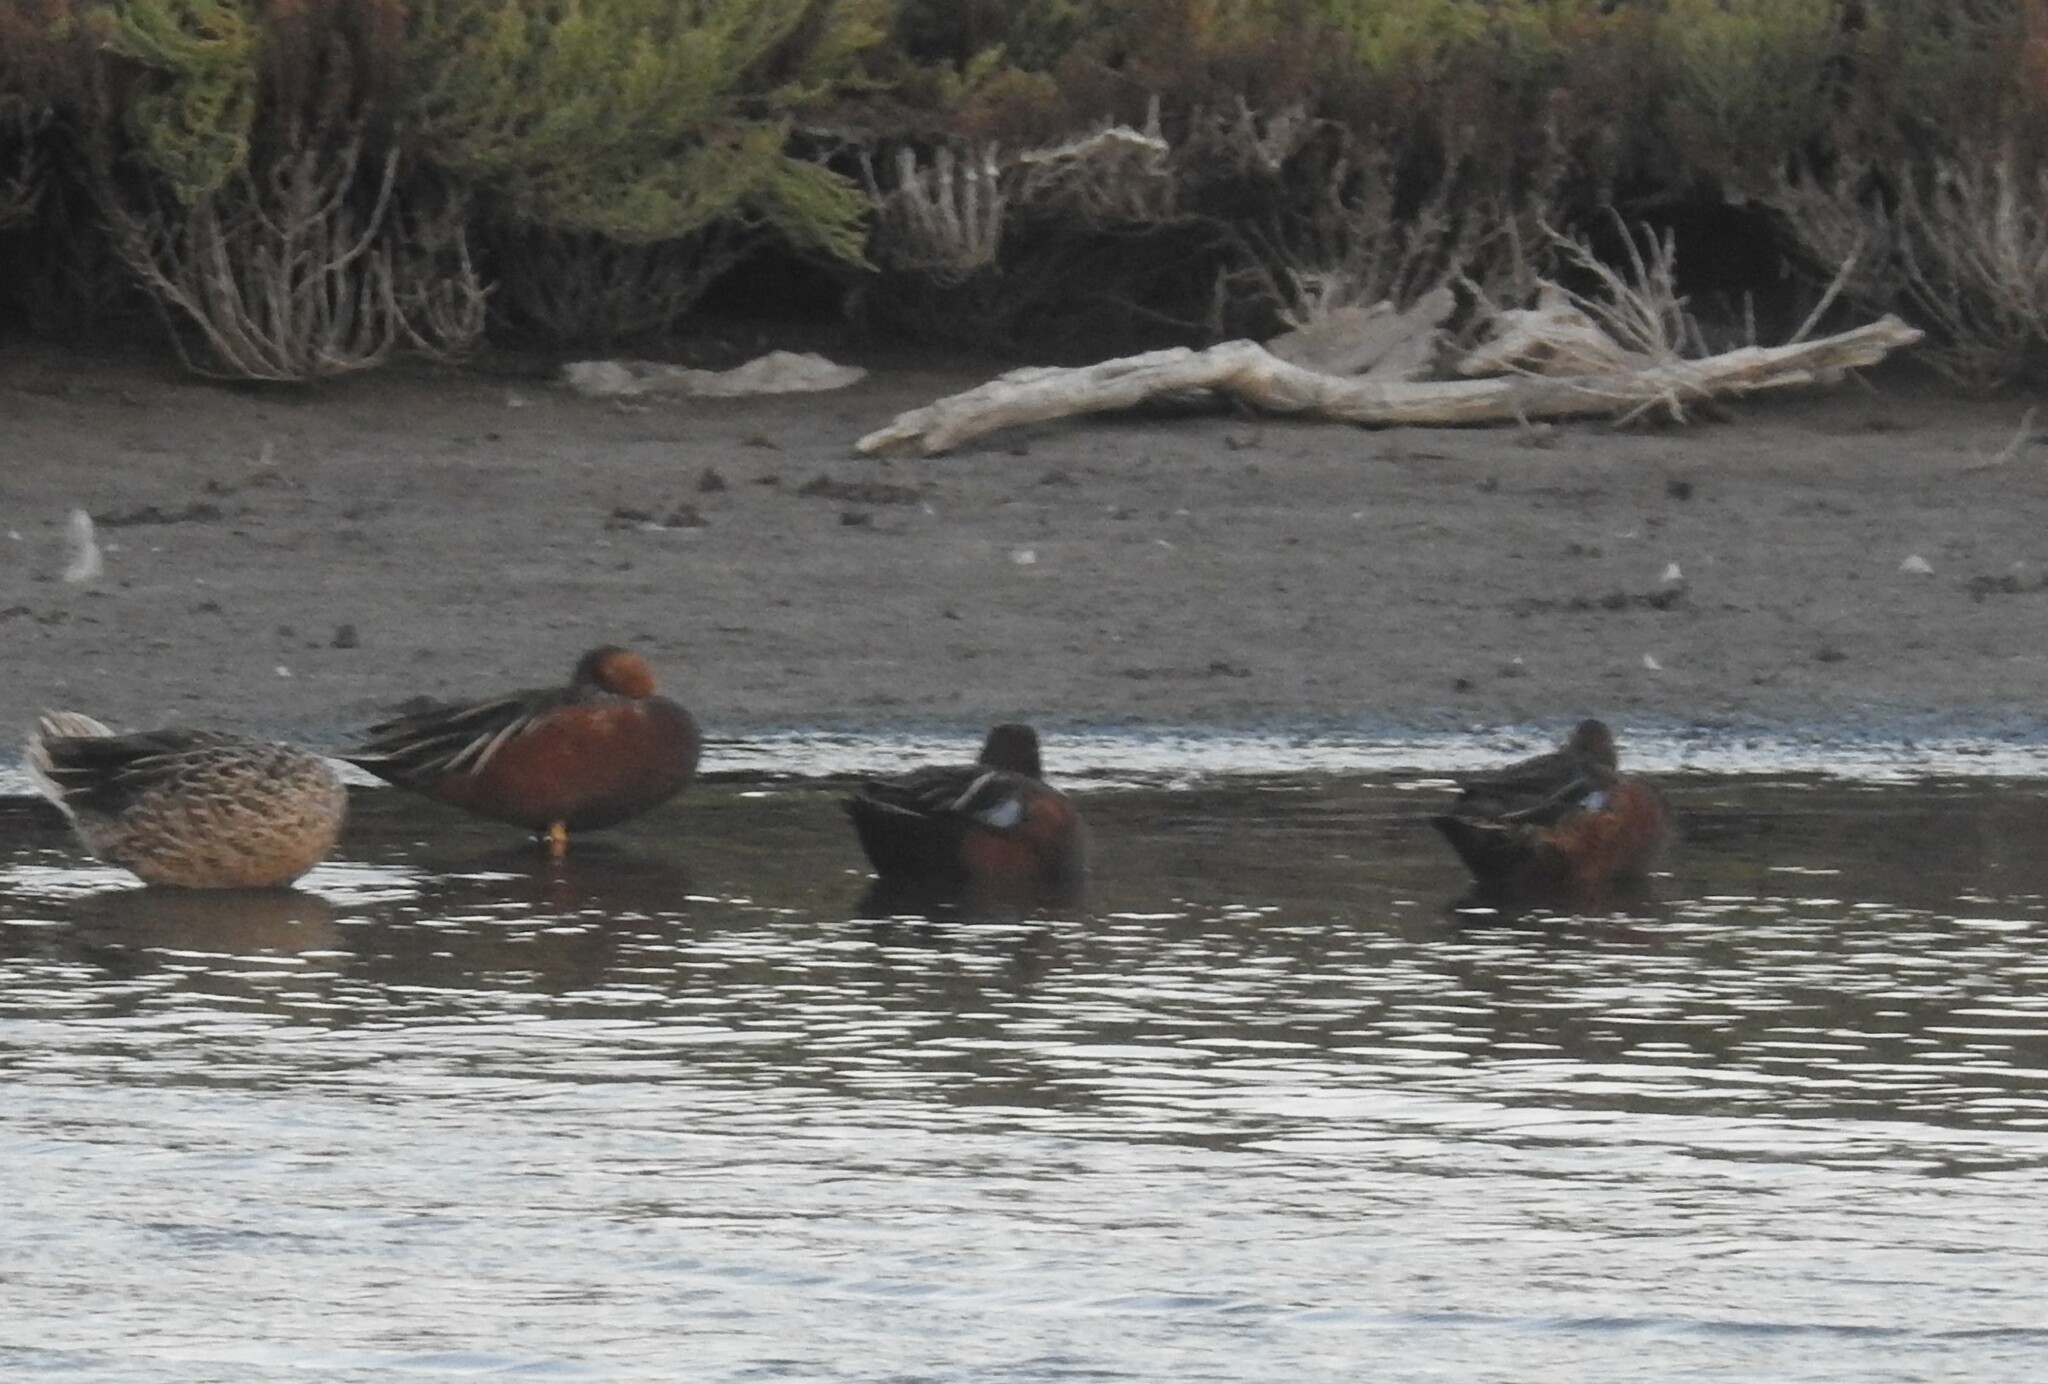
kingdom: Animalia
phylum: Chordata
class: Aves
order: Anseriformes
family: Anatidae
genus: Spatula
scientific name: Spatula cyanoptera
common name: Cinnamon teal
